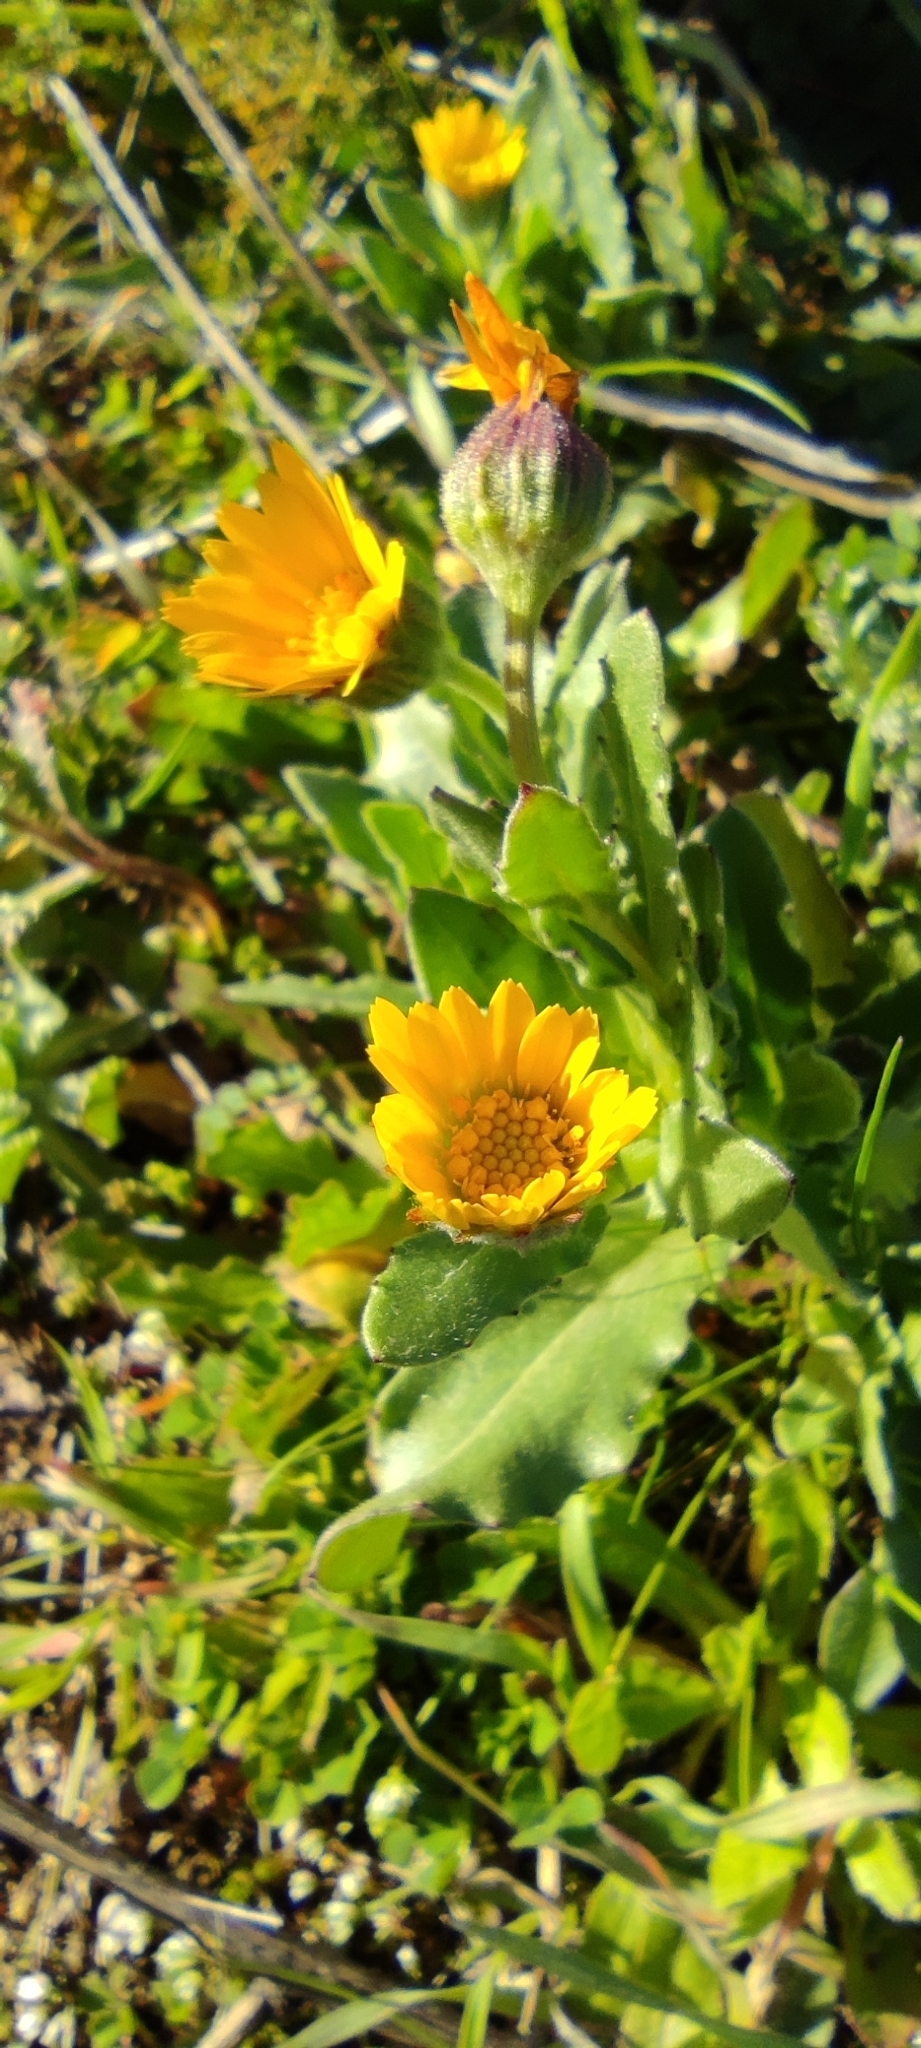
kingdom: Plantae
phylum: Tracheophyta
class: Magnoliopsida
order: Asterales
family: Asteraceae
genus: Calendula
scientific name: Calendula arvensis
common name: Field marigold
